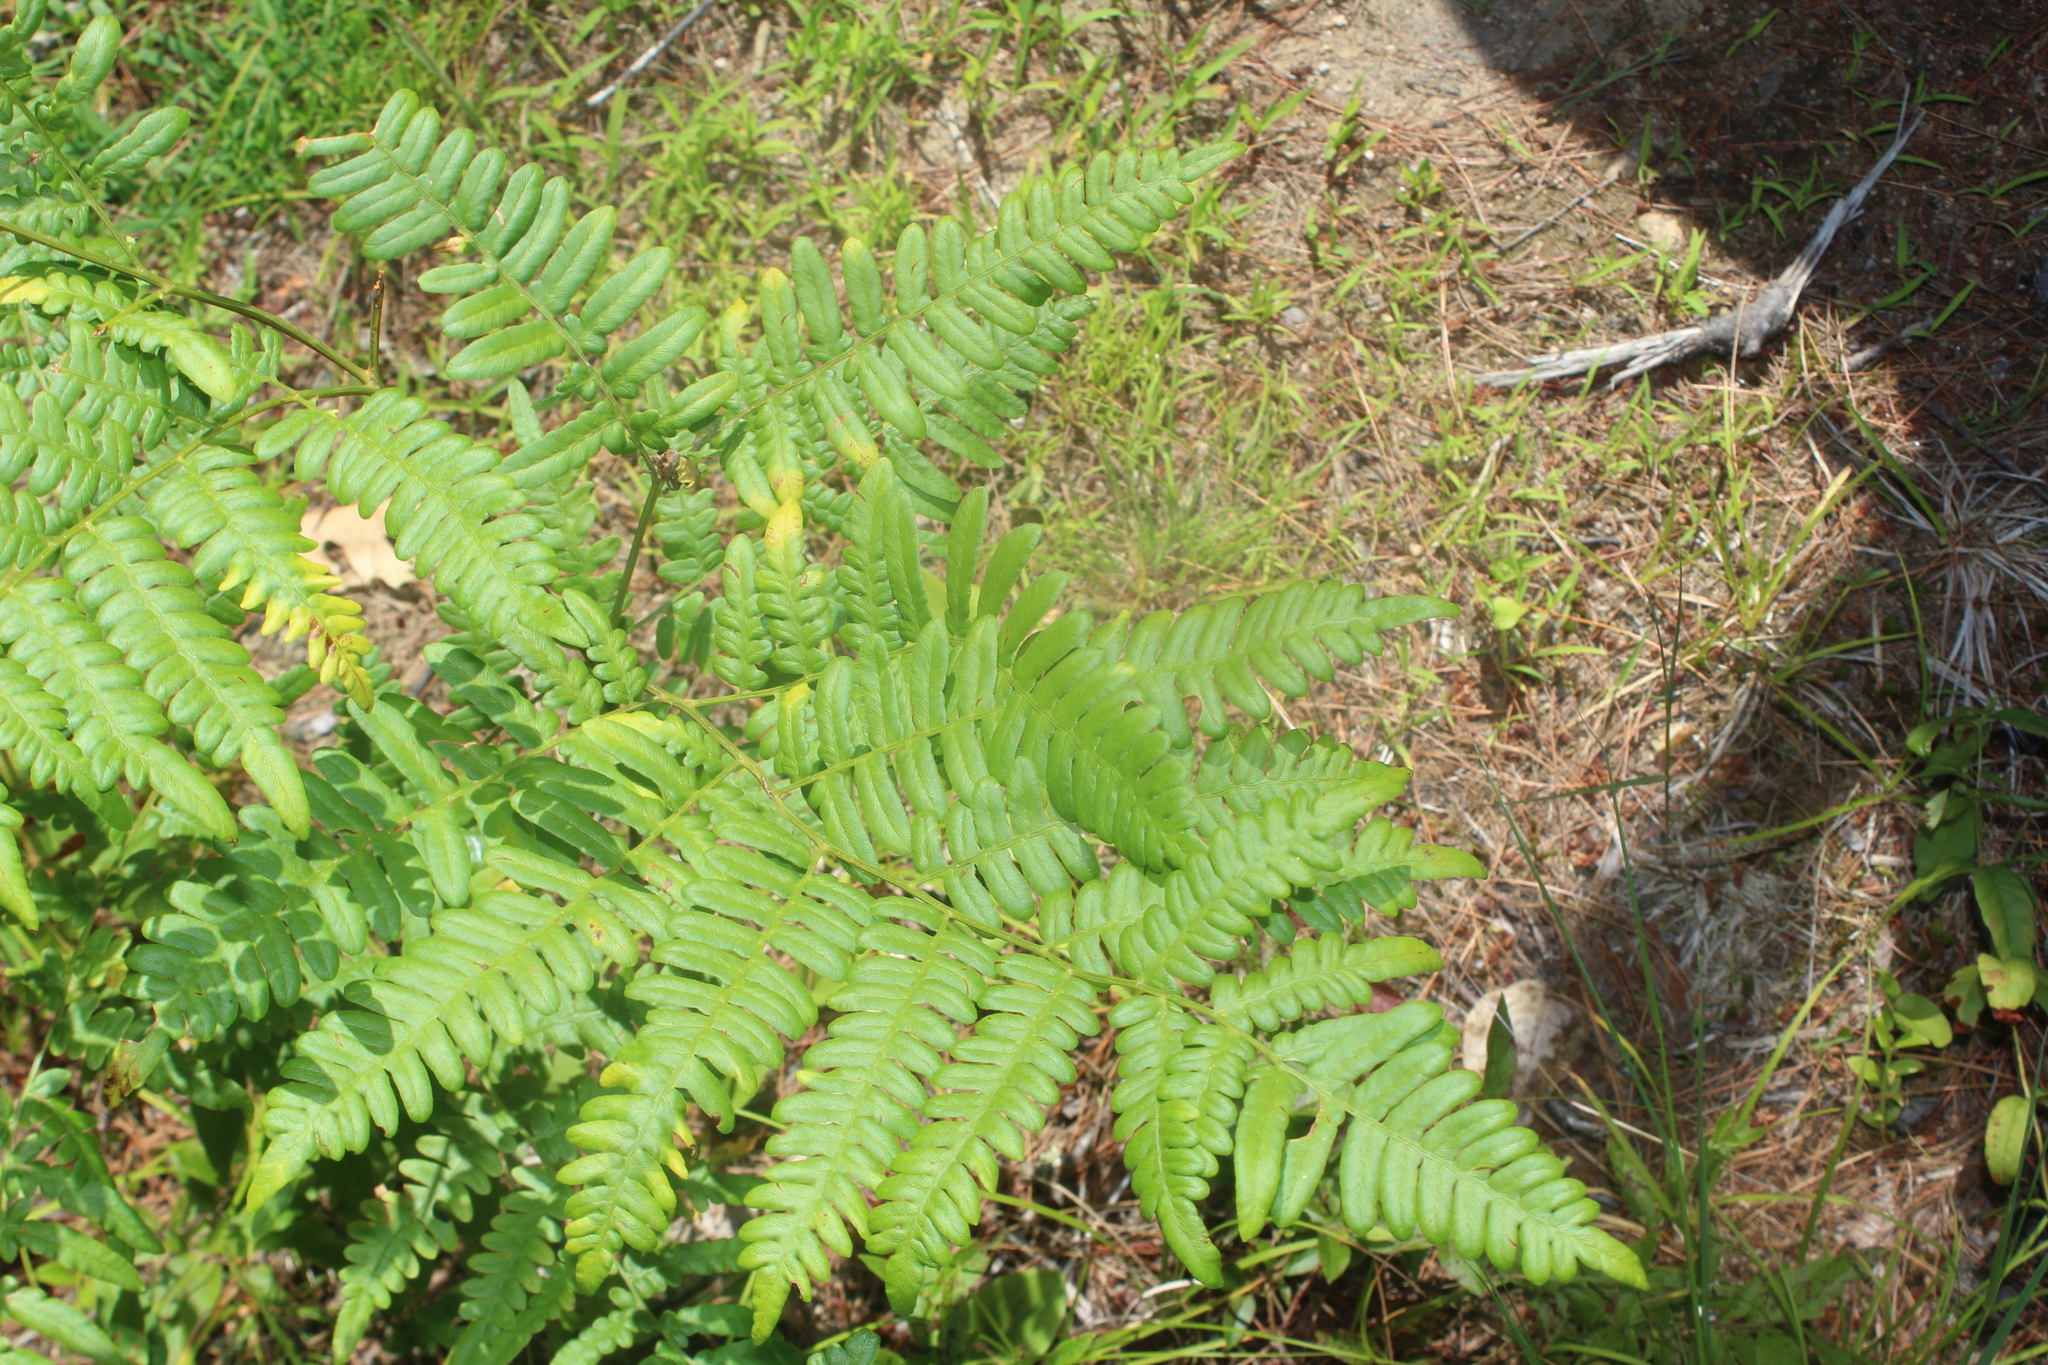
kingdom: Plantae
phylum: Tracheophyta
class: Polypodiopsida
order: Polypodiales
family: Dennstaedtiaceae
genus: Pteridium
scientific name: Pteridium aquilinum
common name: Bracken
